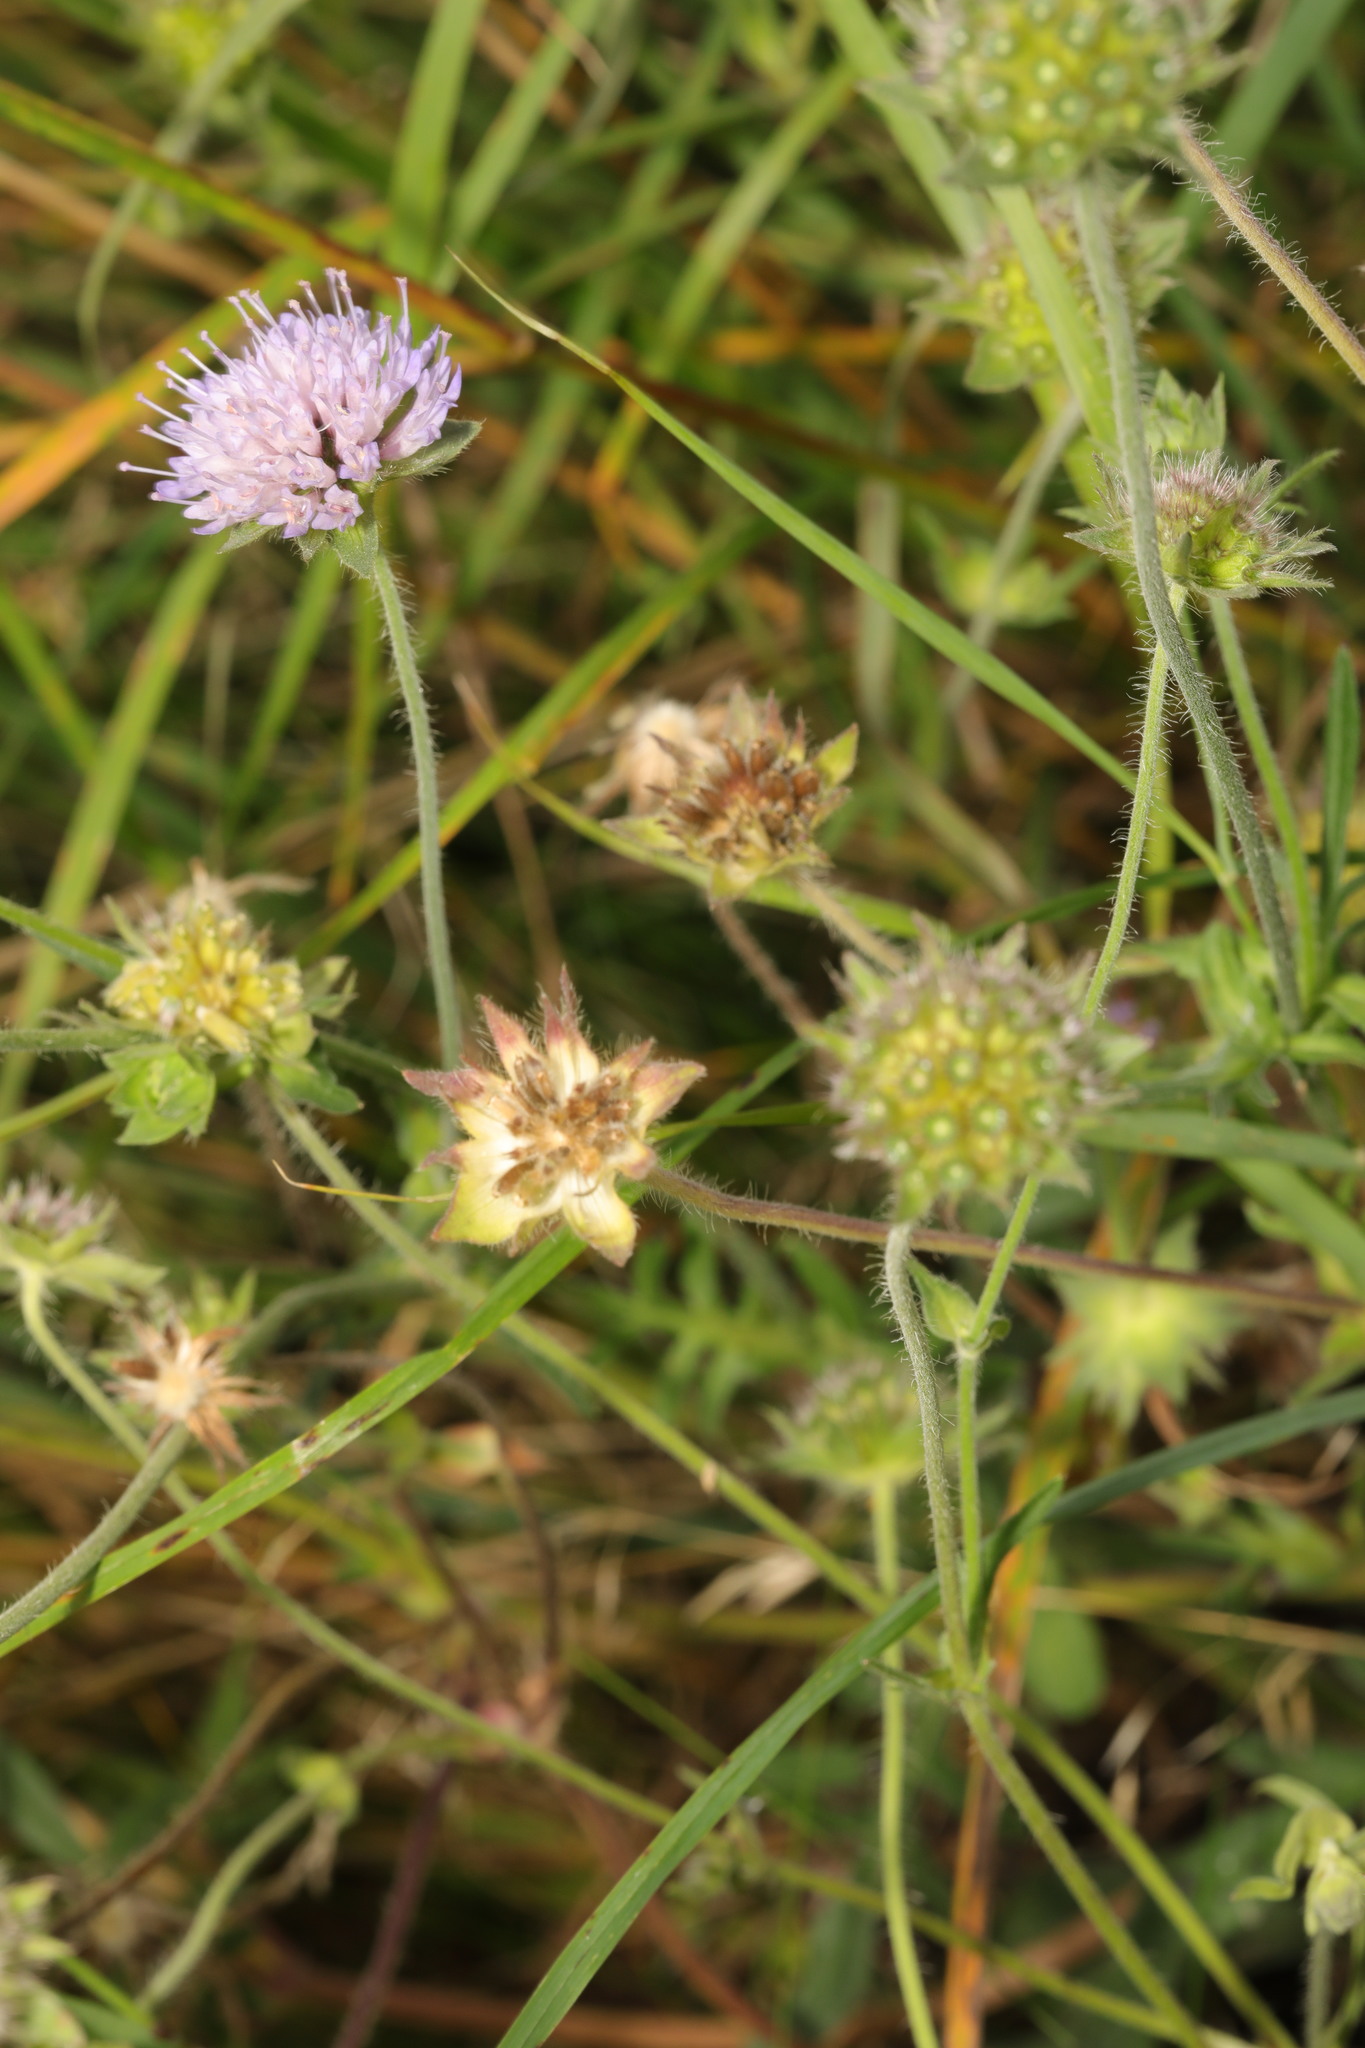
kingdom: Plantae
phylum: Tracheophyta
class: Magnoliopsida
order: Dipsacales
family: Caprifoliaceae
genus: Knautia
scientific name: Knautia arvensis
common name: Field scabiosa
